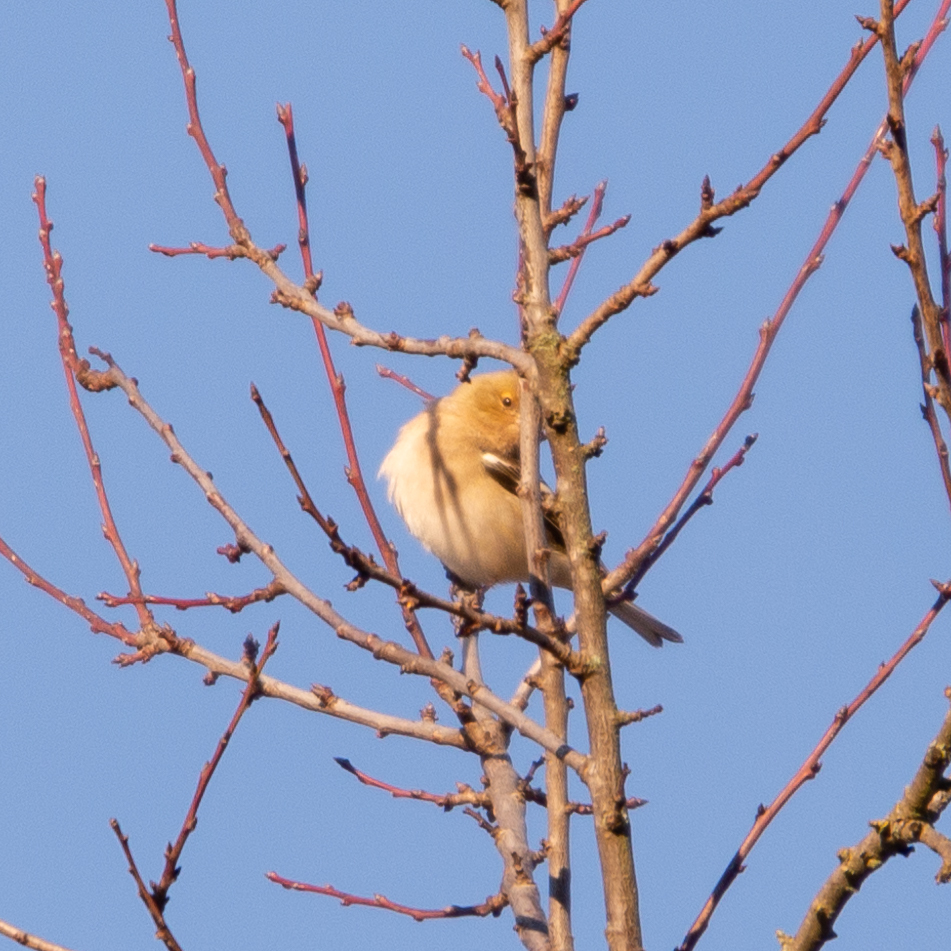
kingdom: Animalia
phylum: Chordata
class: Aves
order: Passeriformes
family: Fringillidae
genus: Fringilla
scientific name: Fringilla coelebs
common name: Common chaffinch
